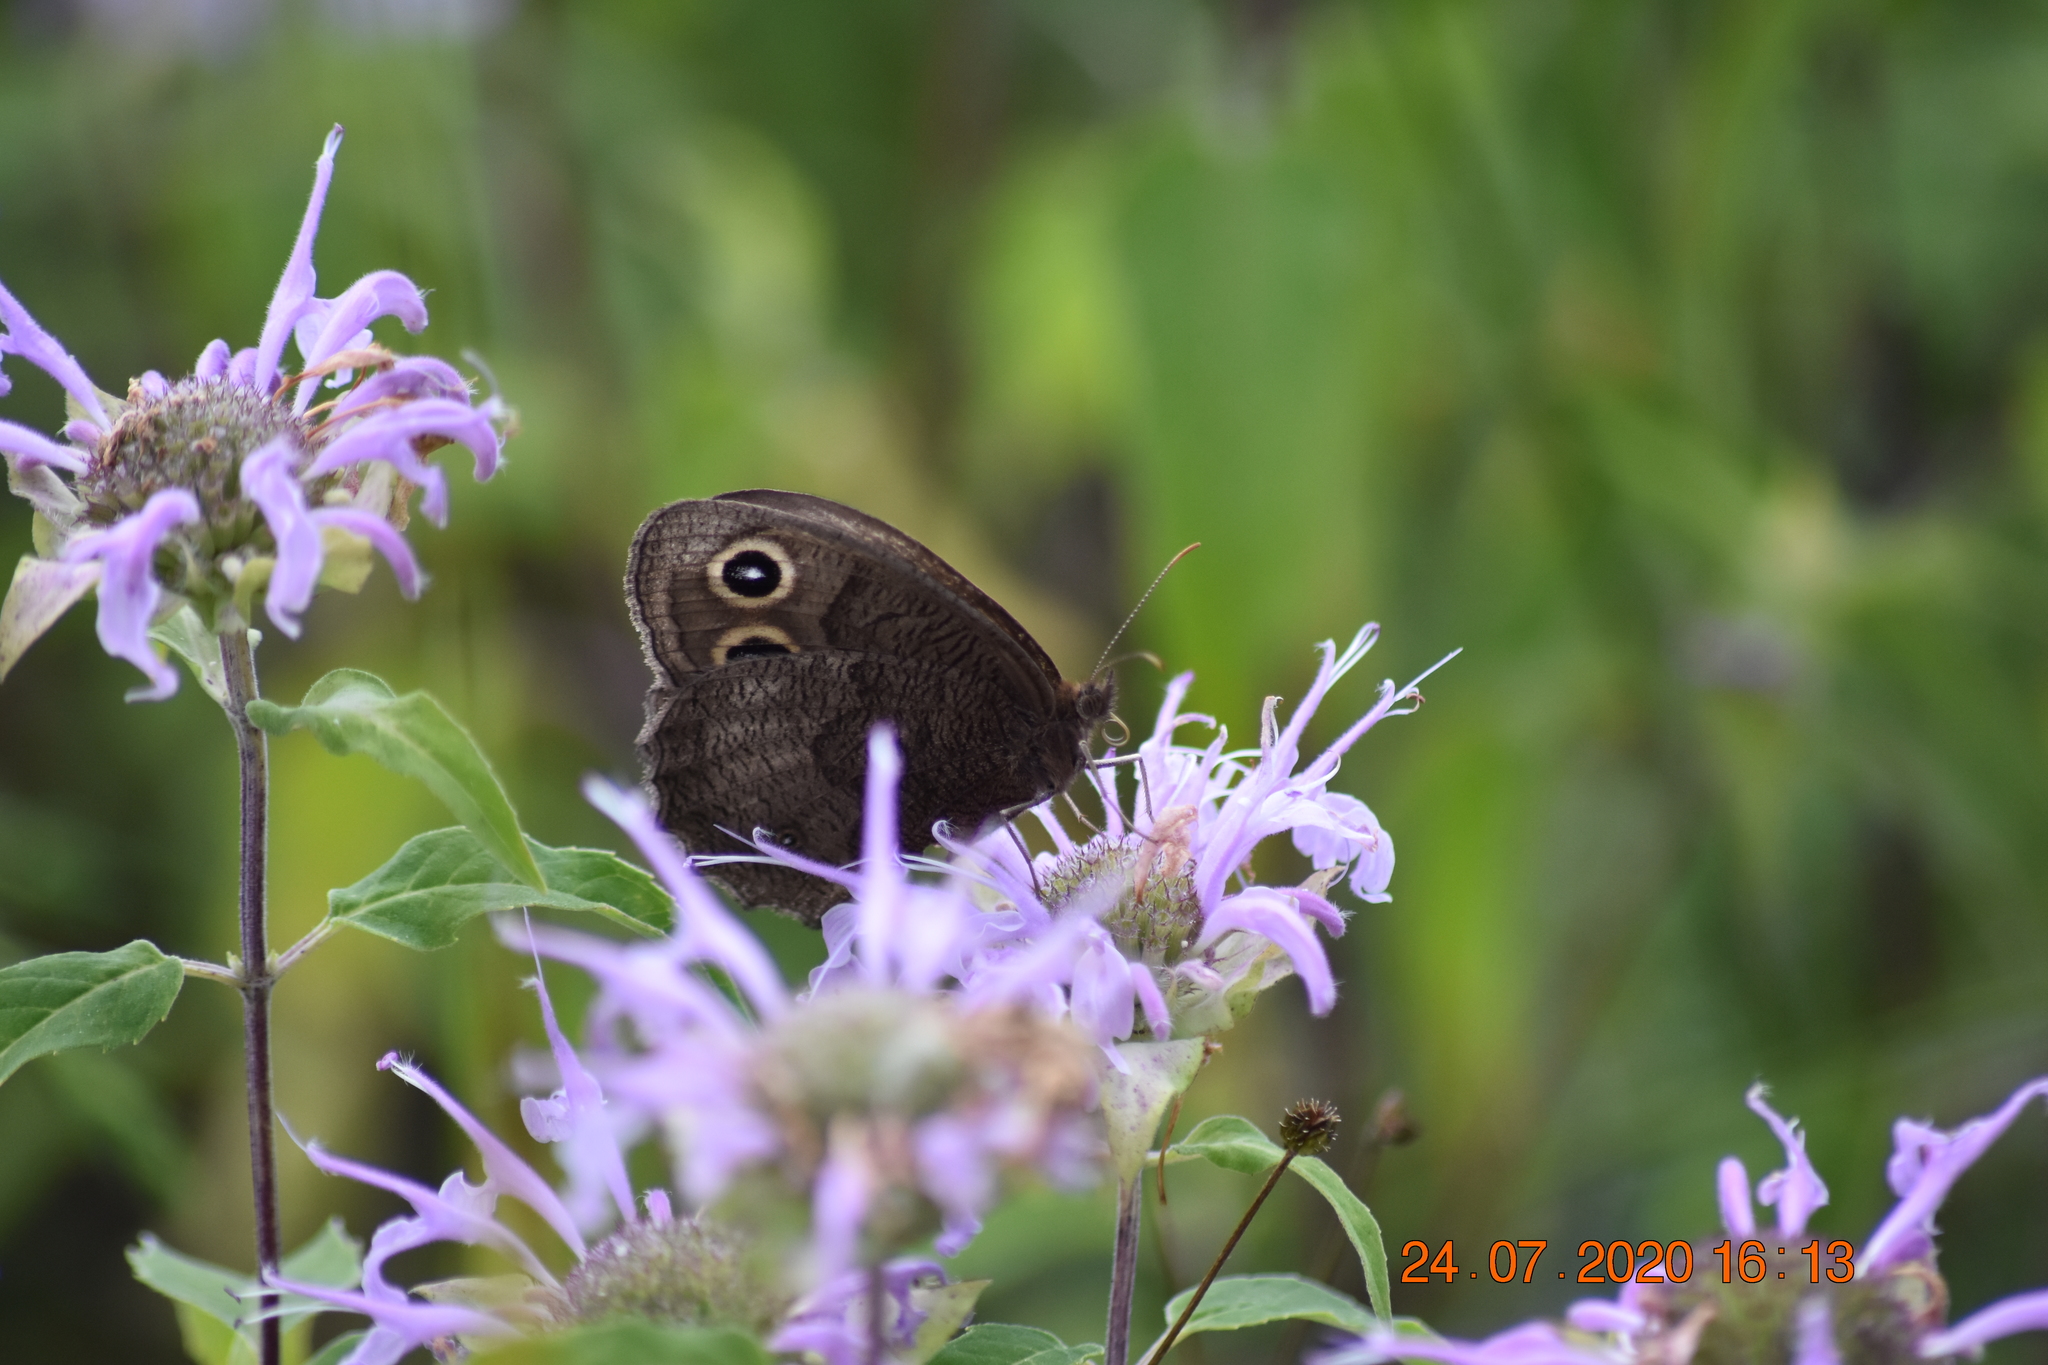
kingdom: Animalia
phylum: Arthropoda
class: Insecta
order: Lepidoptera
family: Nymphalidae
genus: Cercyonis
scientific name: Cercyonis pegala
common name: Common wood-nymph
